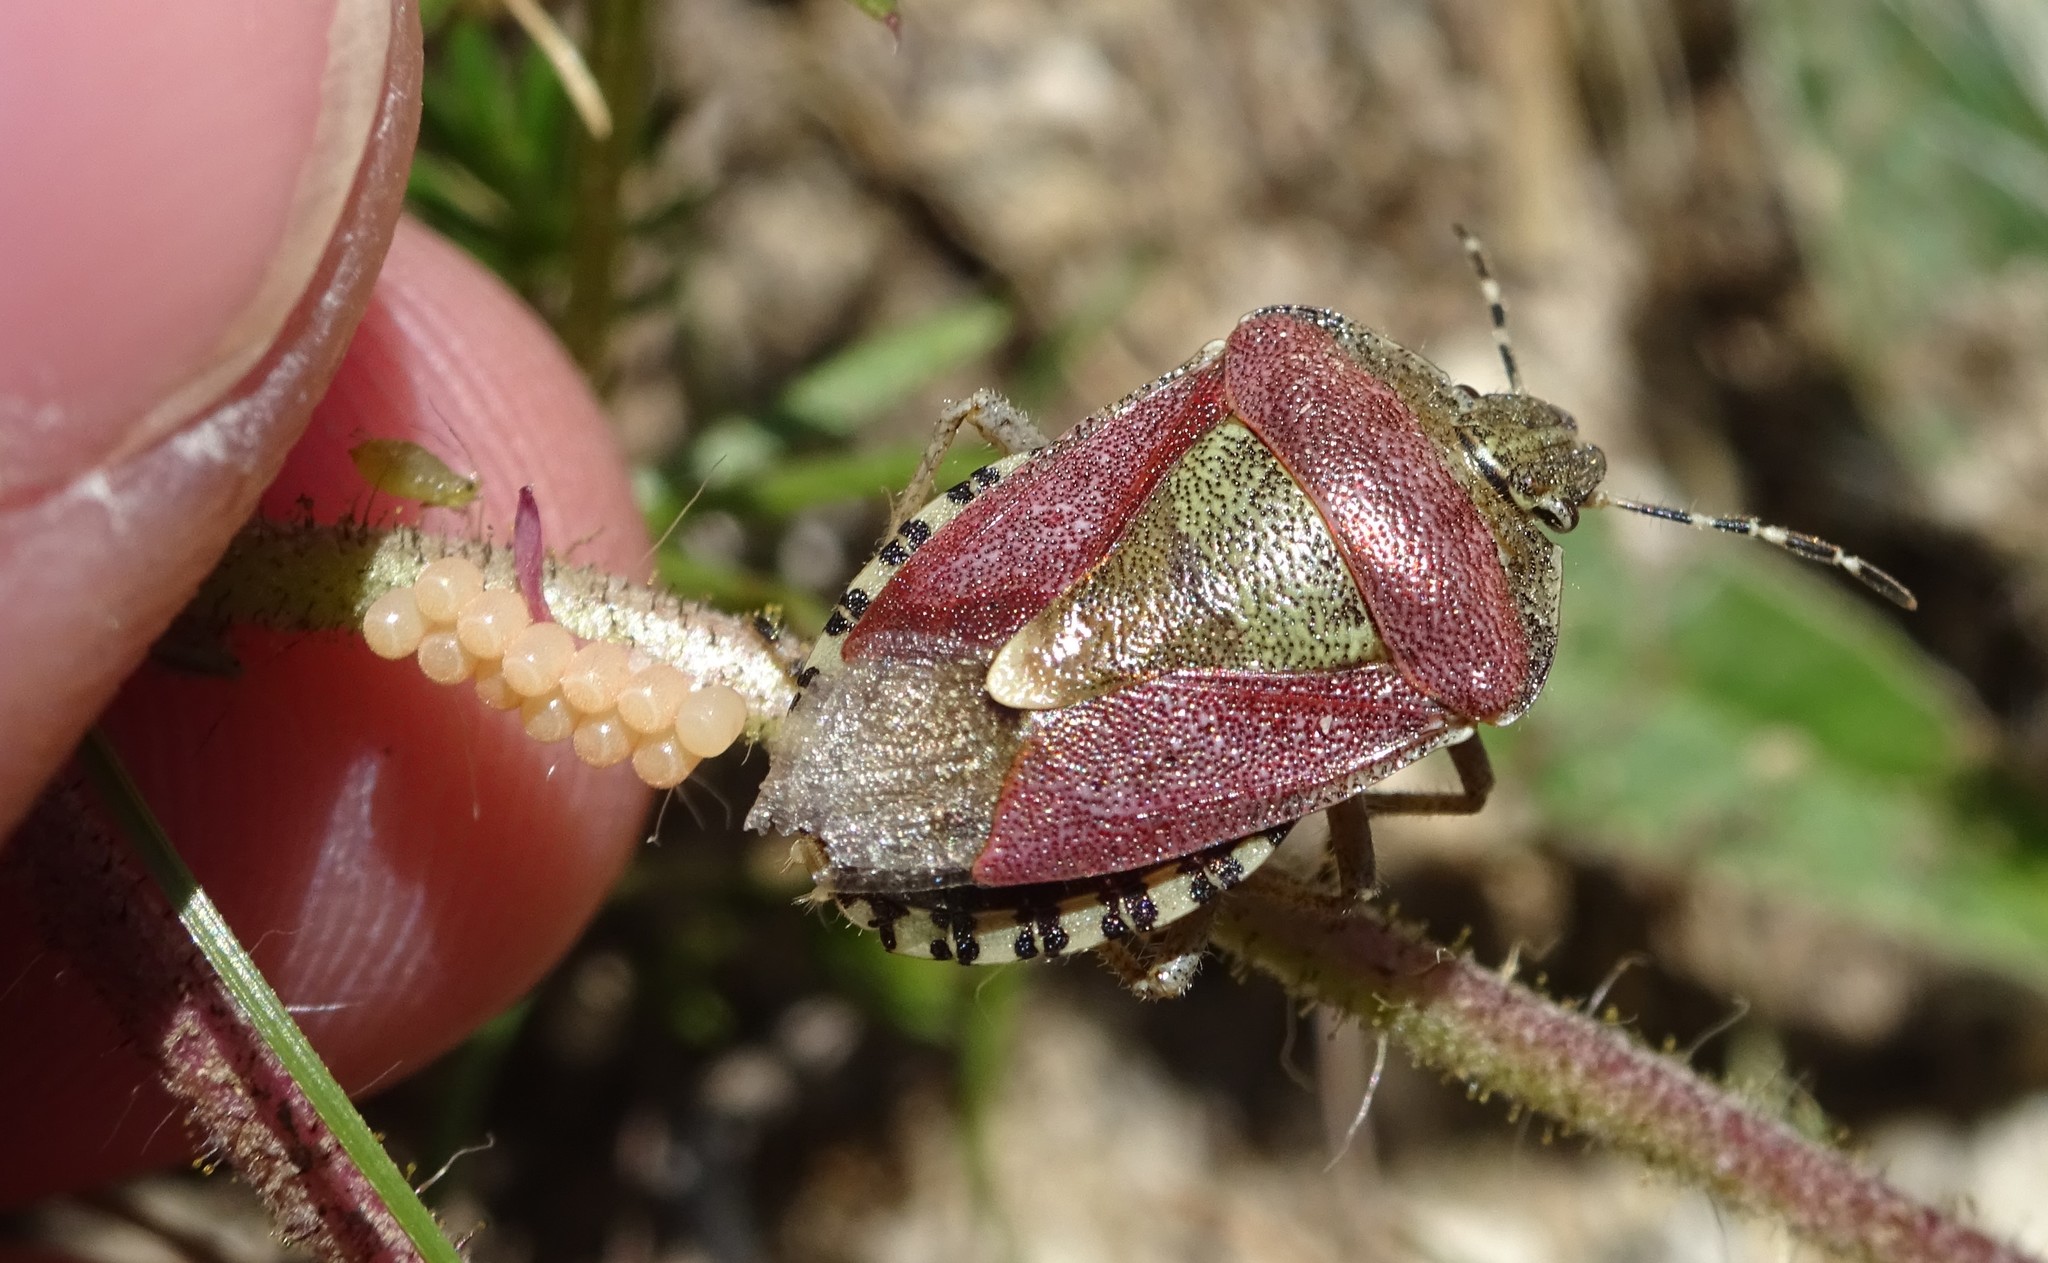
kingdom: Animalia
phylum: Arthropoda
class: Insecta
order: Hemiptera
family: Pentatomidae
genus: Dolycoris
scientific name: Dolycoris baccarum
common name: Sloe bug
